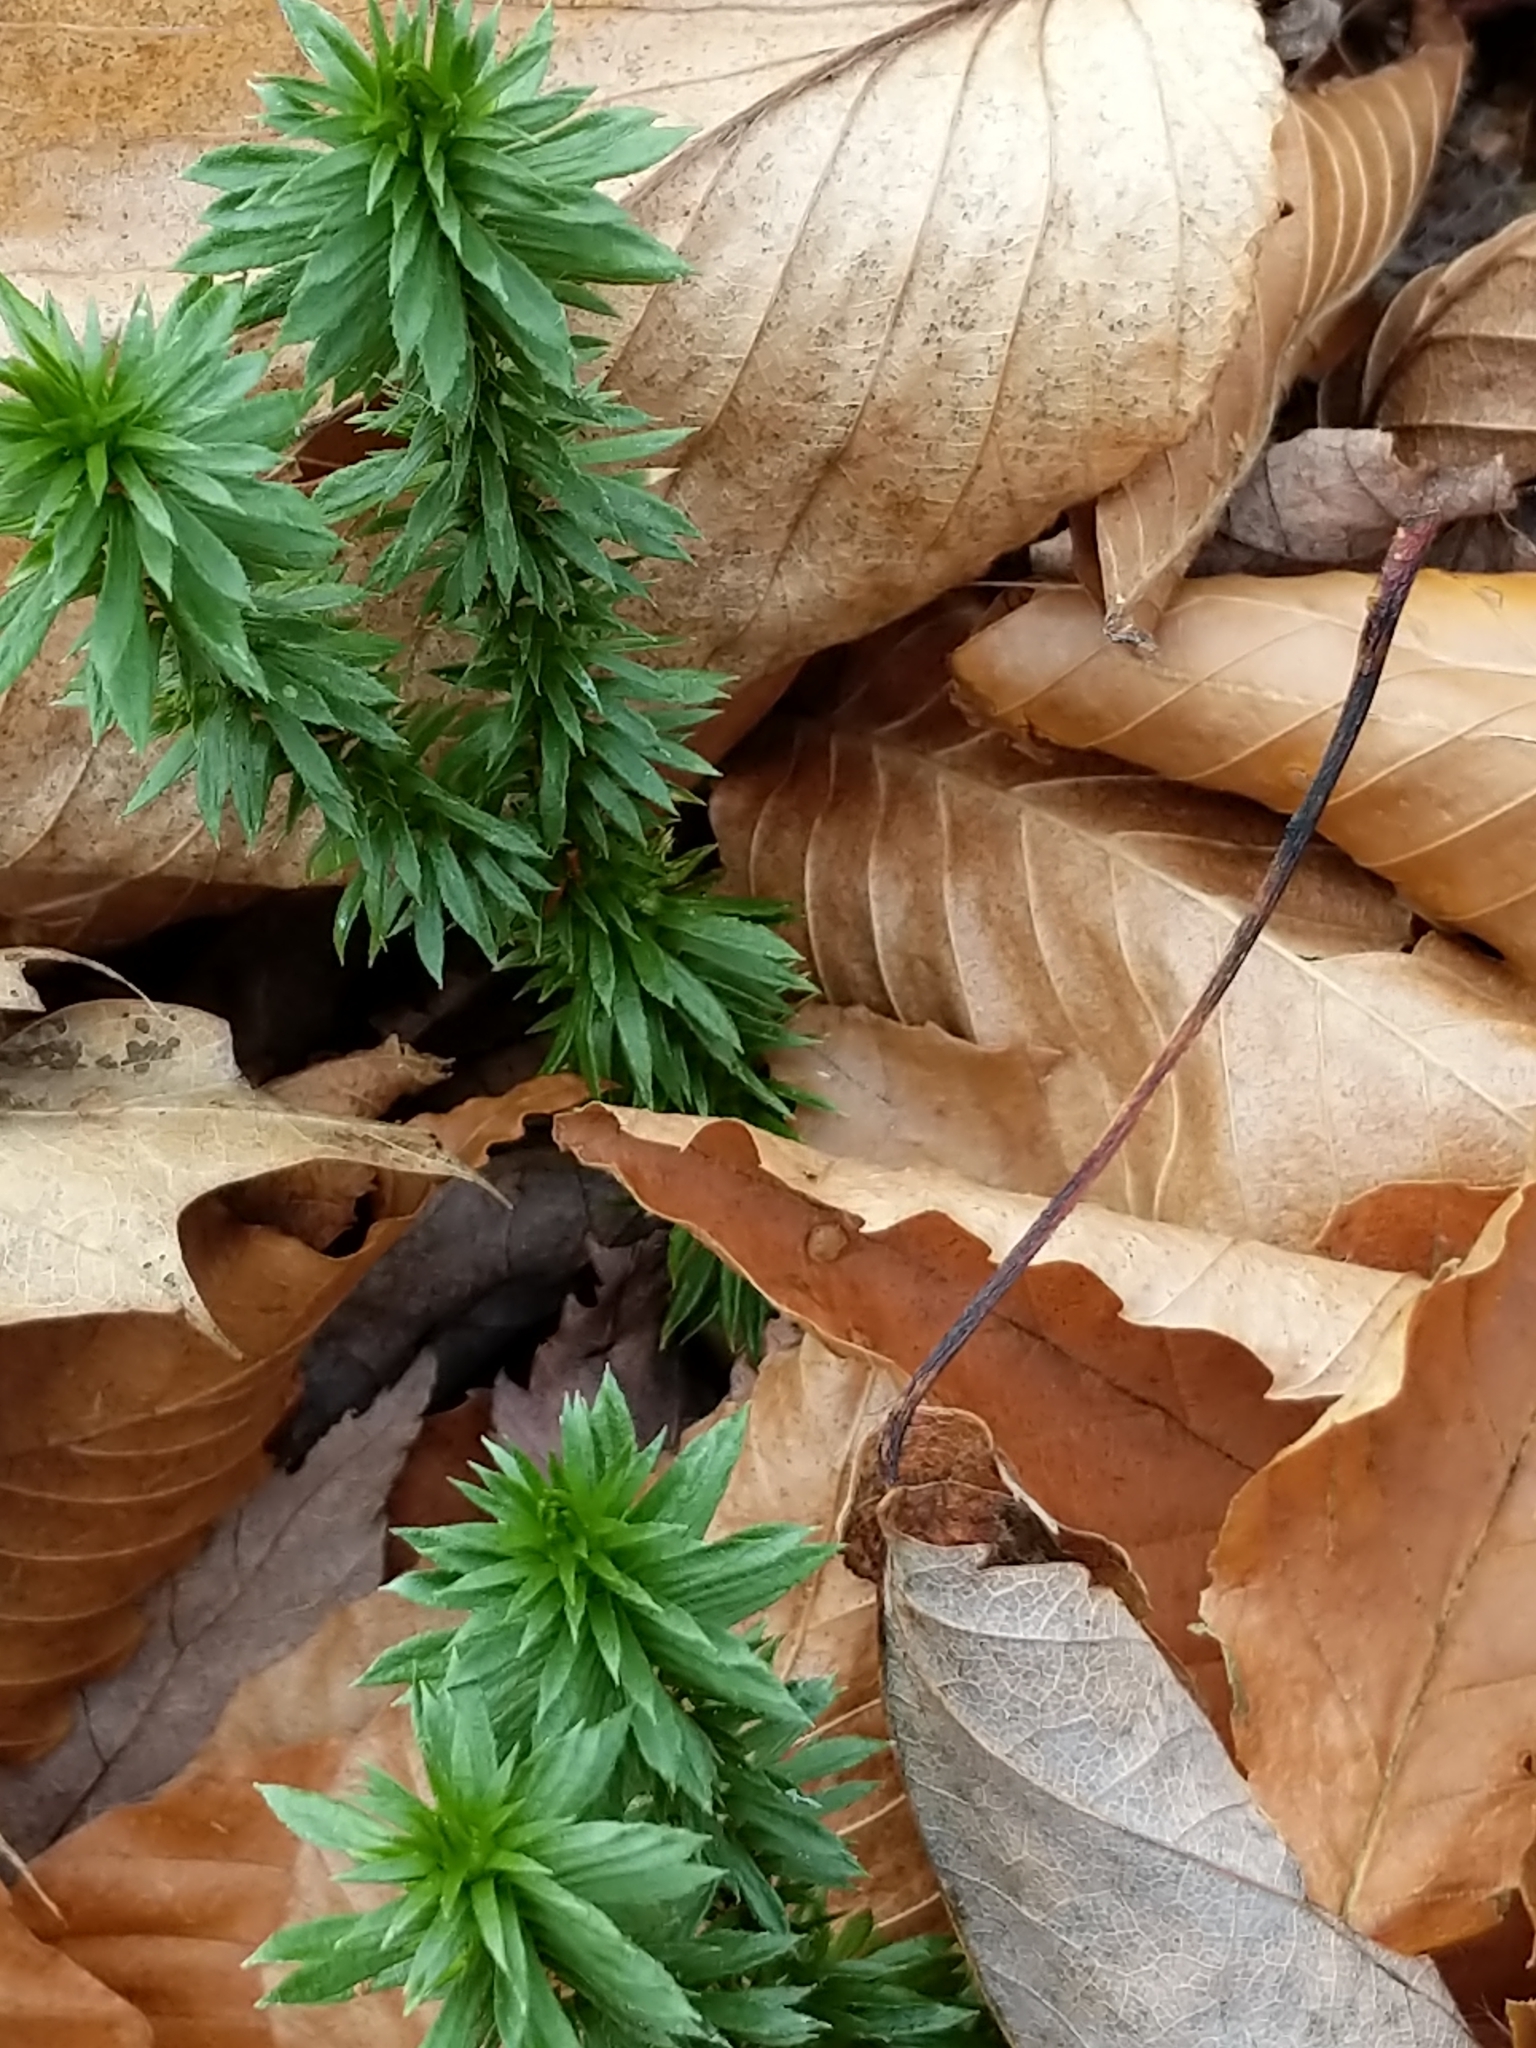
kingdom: Plantae
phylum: Tracheophyta
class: Lycopodiopsida
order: Lycopodiales
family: Lycopodiaceae
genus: Huperzia
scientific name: Huperzia lucidula
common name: Shining clubmoss
